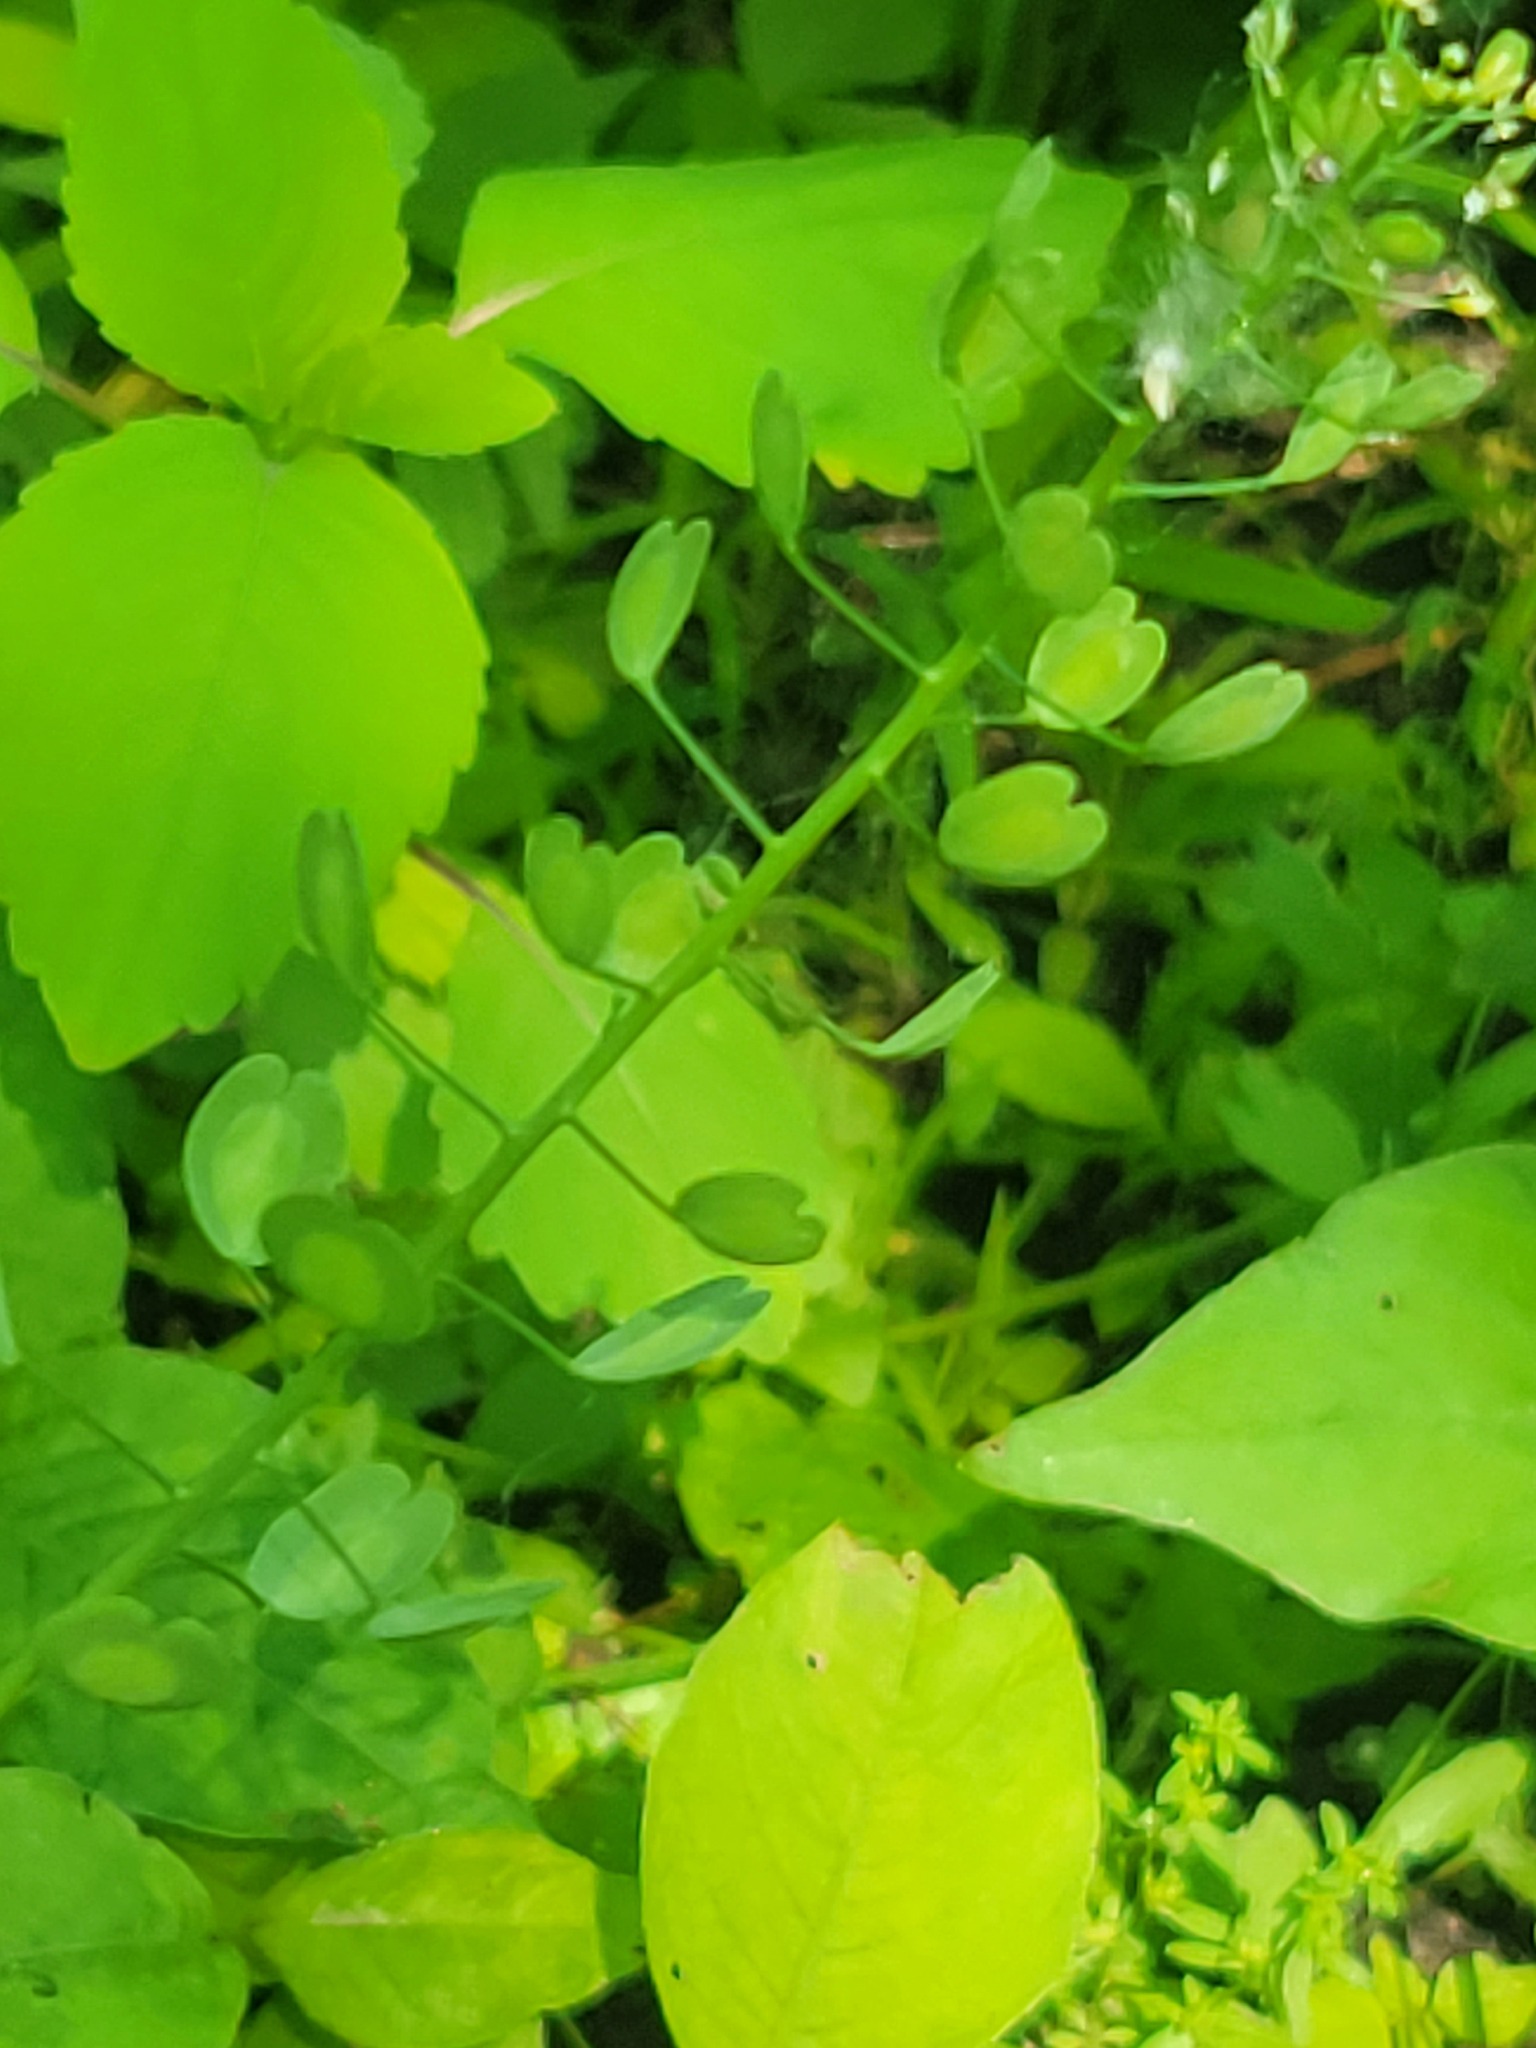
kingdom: Plantae
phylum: Tracheophyta
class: Magnoliopsida
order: Brassicales
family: Brassicaceae
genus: Thlaspi
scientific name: Thlaspi arvense
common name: Field pennycress
